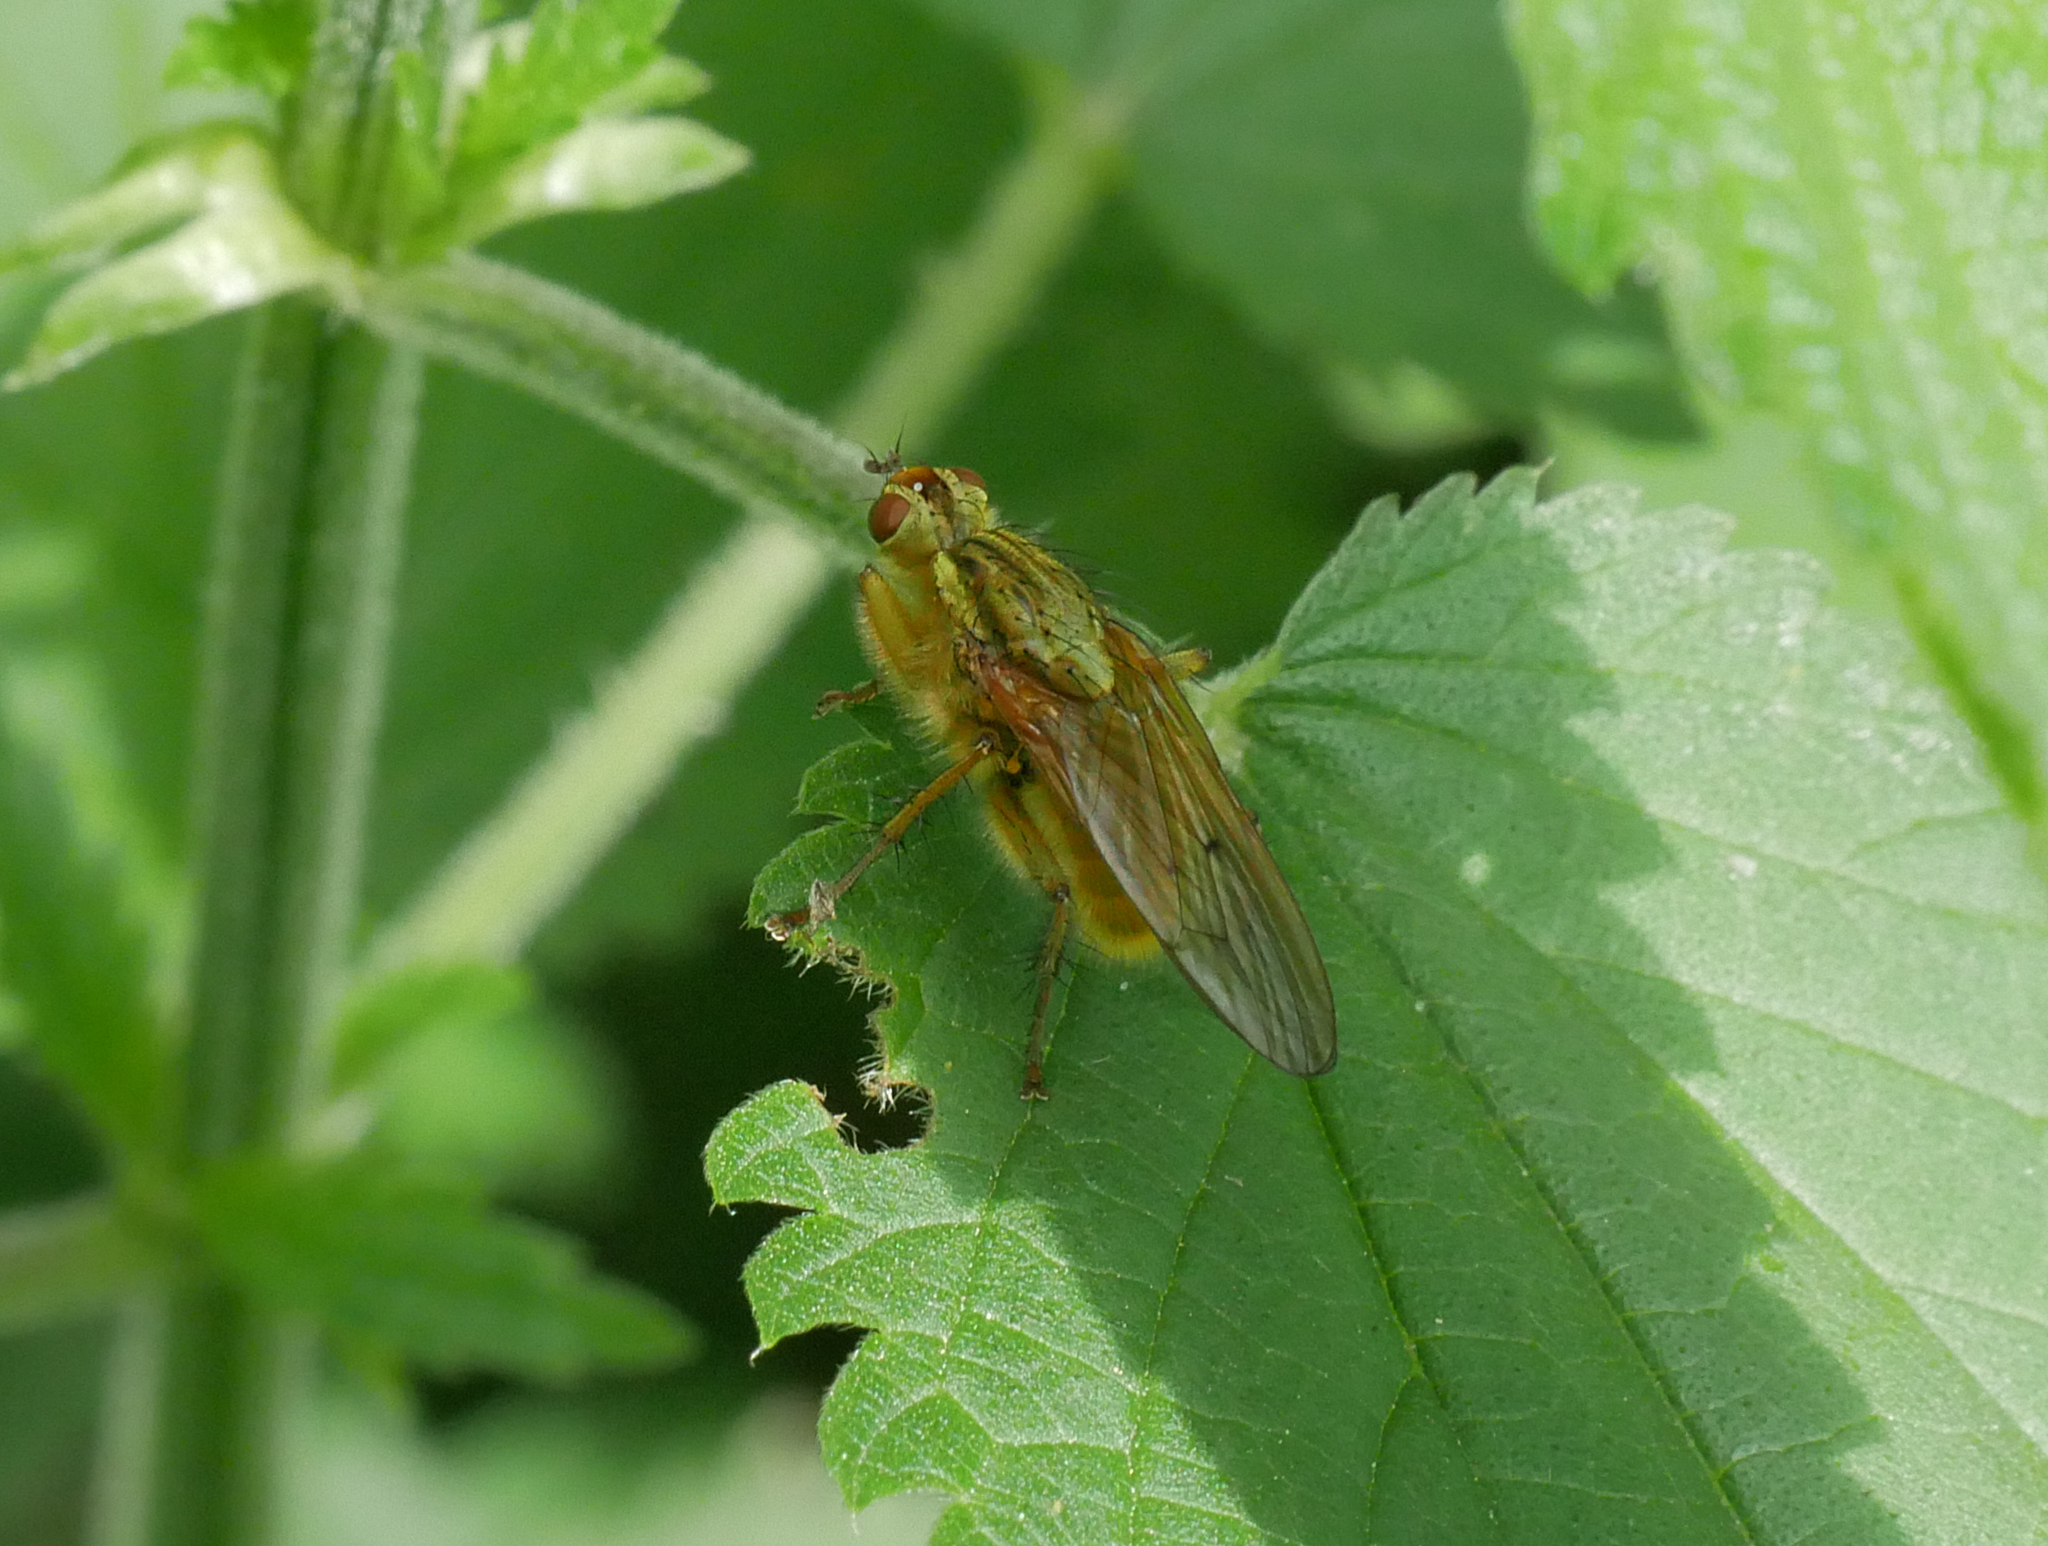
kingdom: Animalia
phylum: Arthropoda
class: Insecta
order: Diptera
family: Scathophagidae
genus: Scathophaga
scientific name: Scathophaga stercoraria
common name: Yellow dung fly
